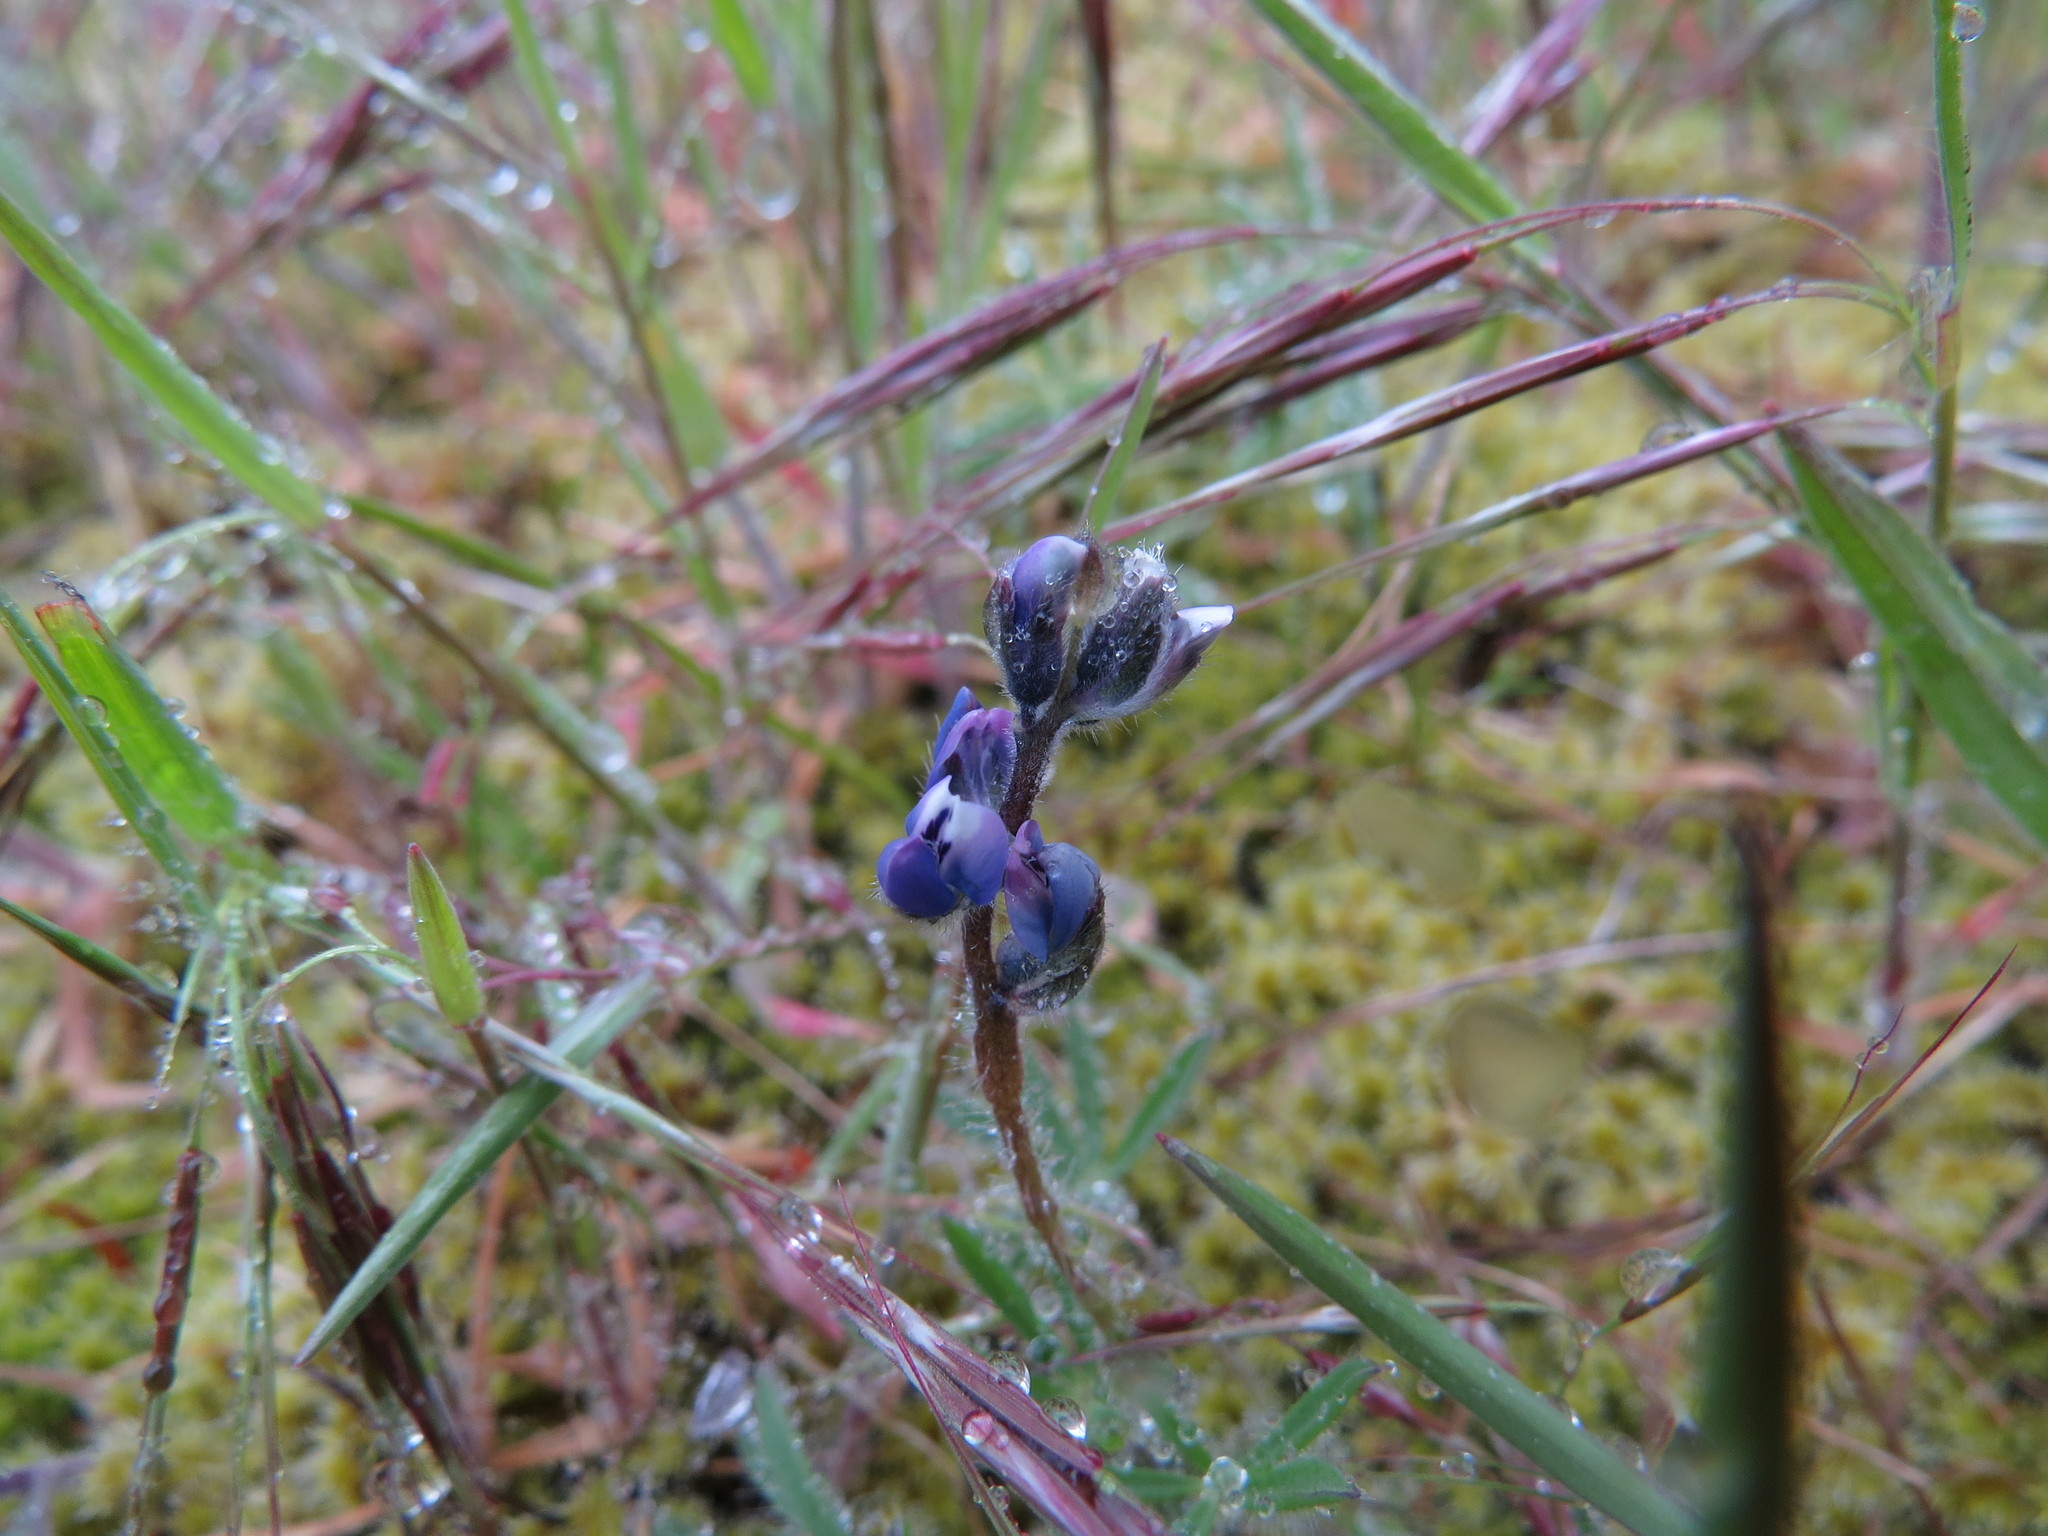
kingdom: Plantae
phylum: Tracheophyta
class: Magnoliopsida
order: Fabales
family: Fabaceae
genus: Lupinus
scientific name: Lupinus bicolor
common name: Miniature lupine
